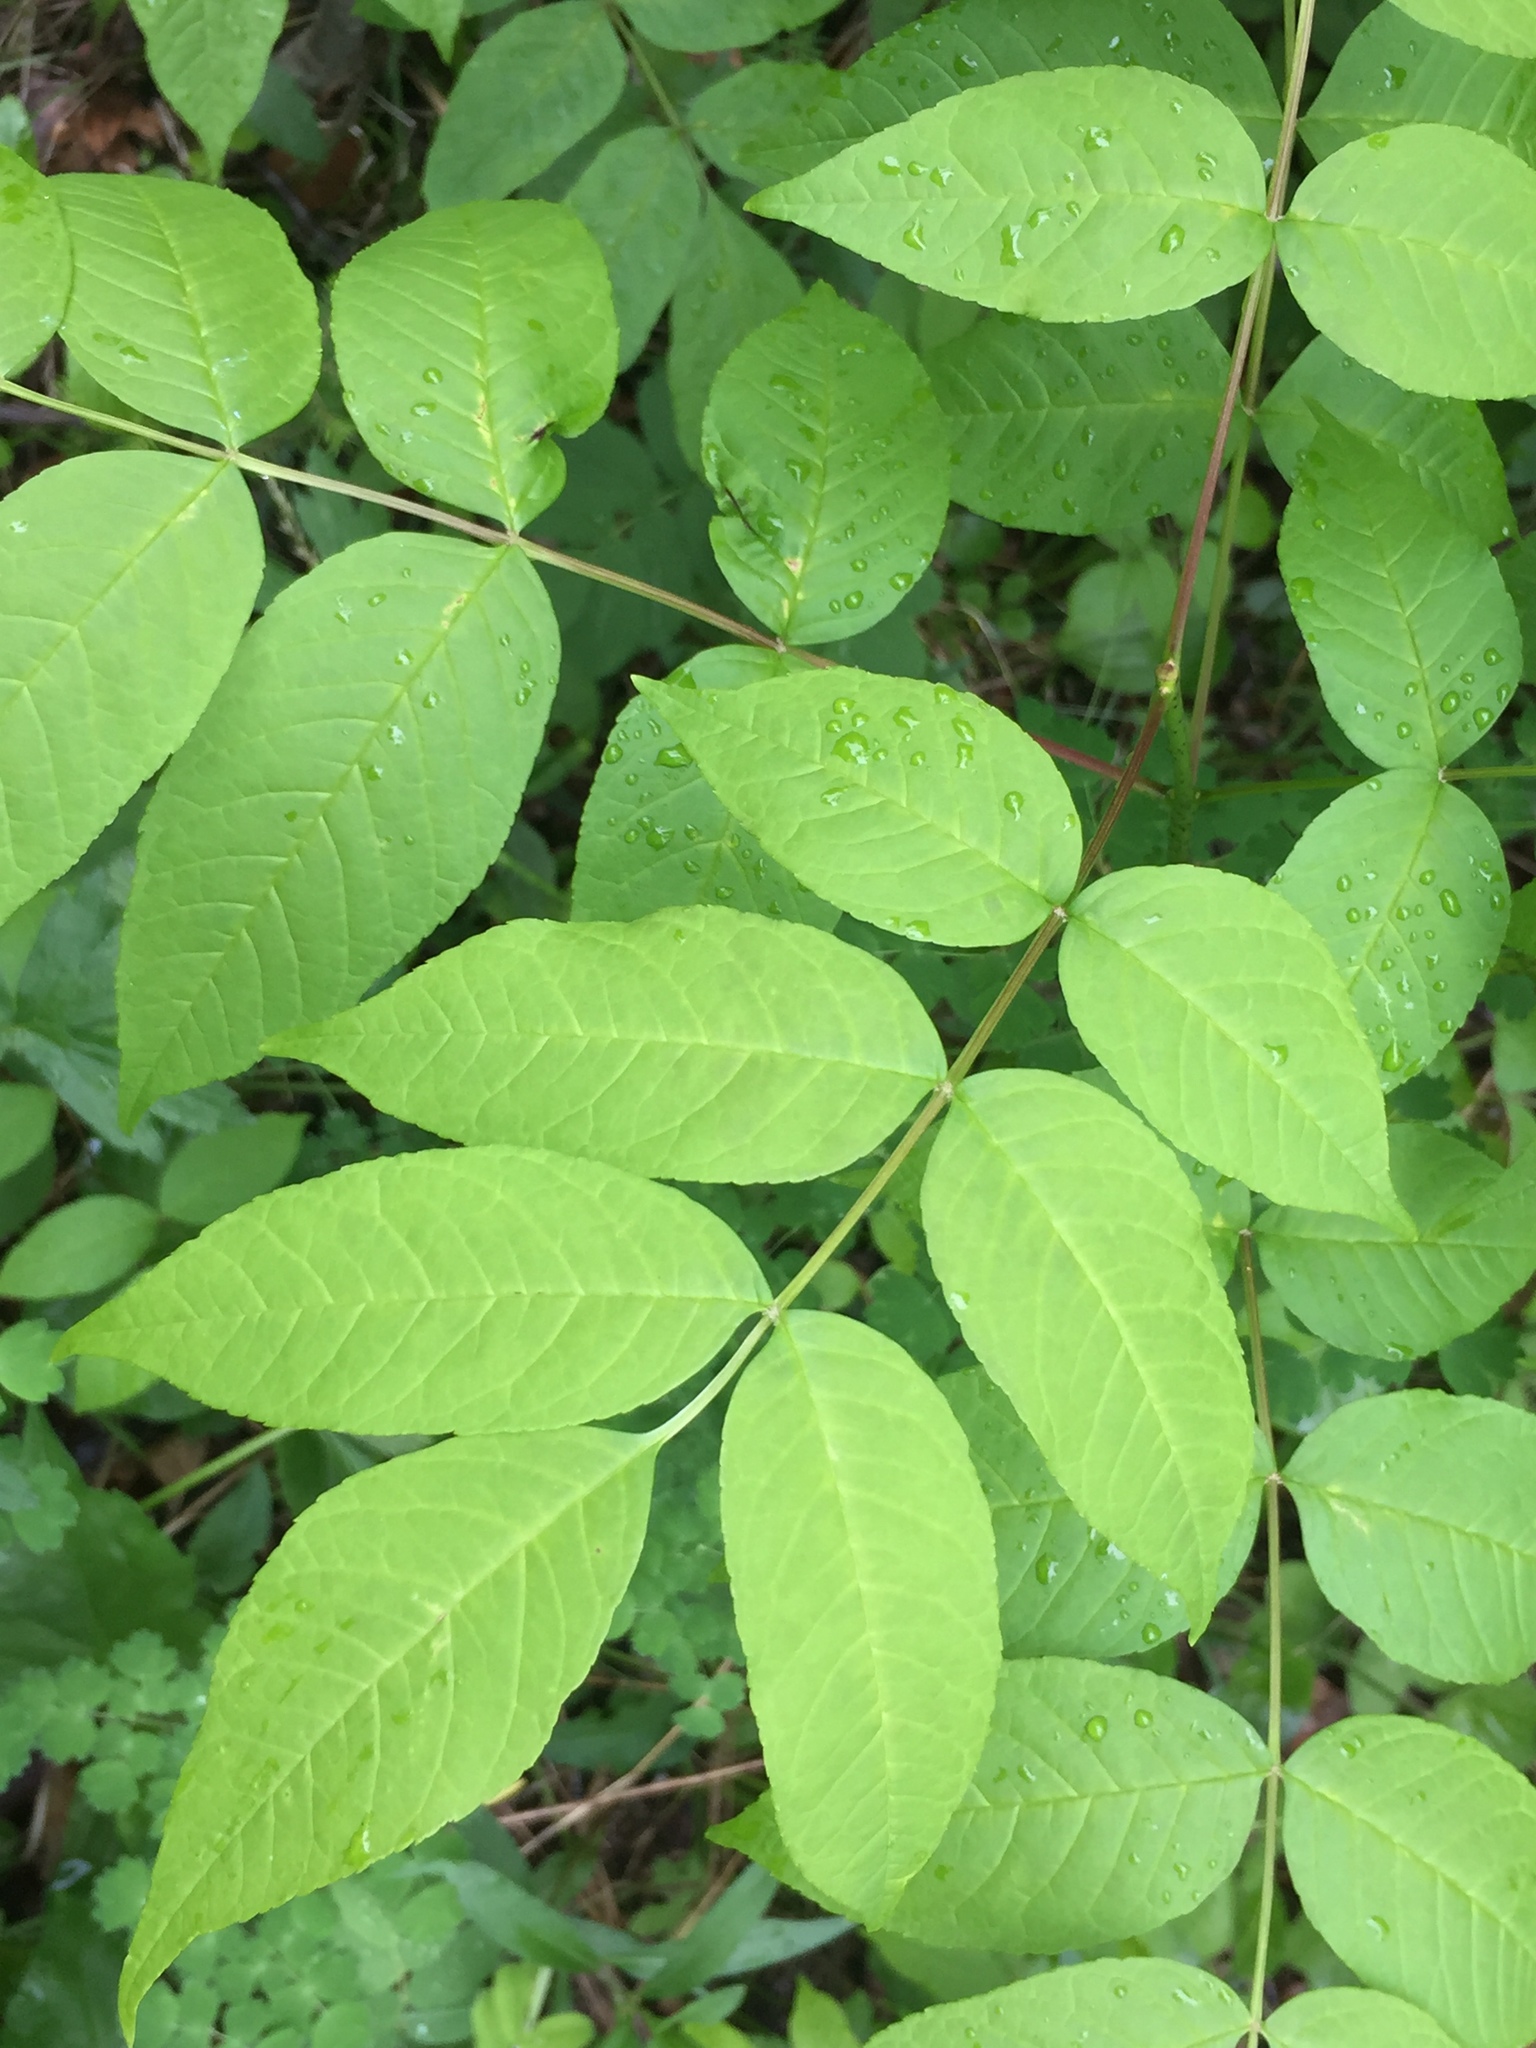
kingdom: Plantae
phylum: Tracheophyta
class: Magnoliopsida
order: Lamiales
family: Oleaceae
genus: Fraxinus
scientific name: Fraxinus nigra
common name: Black ash
